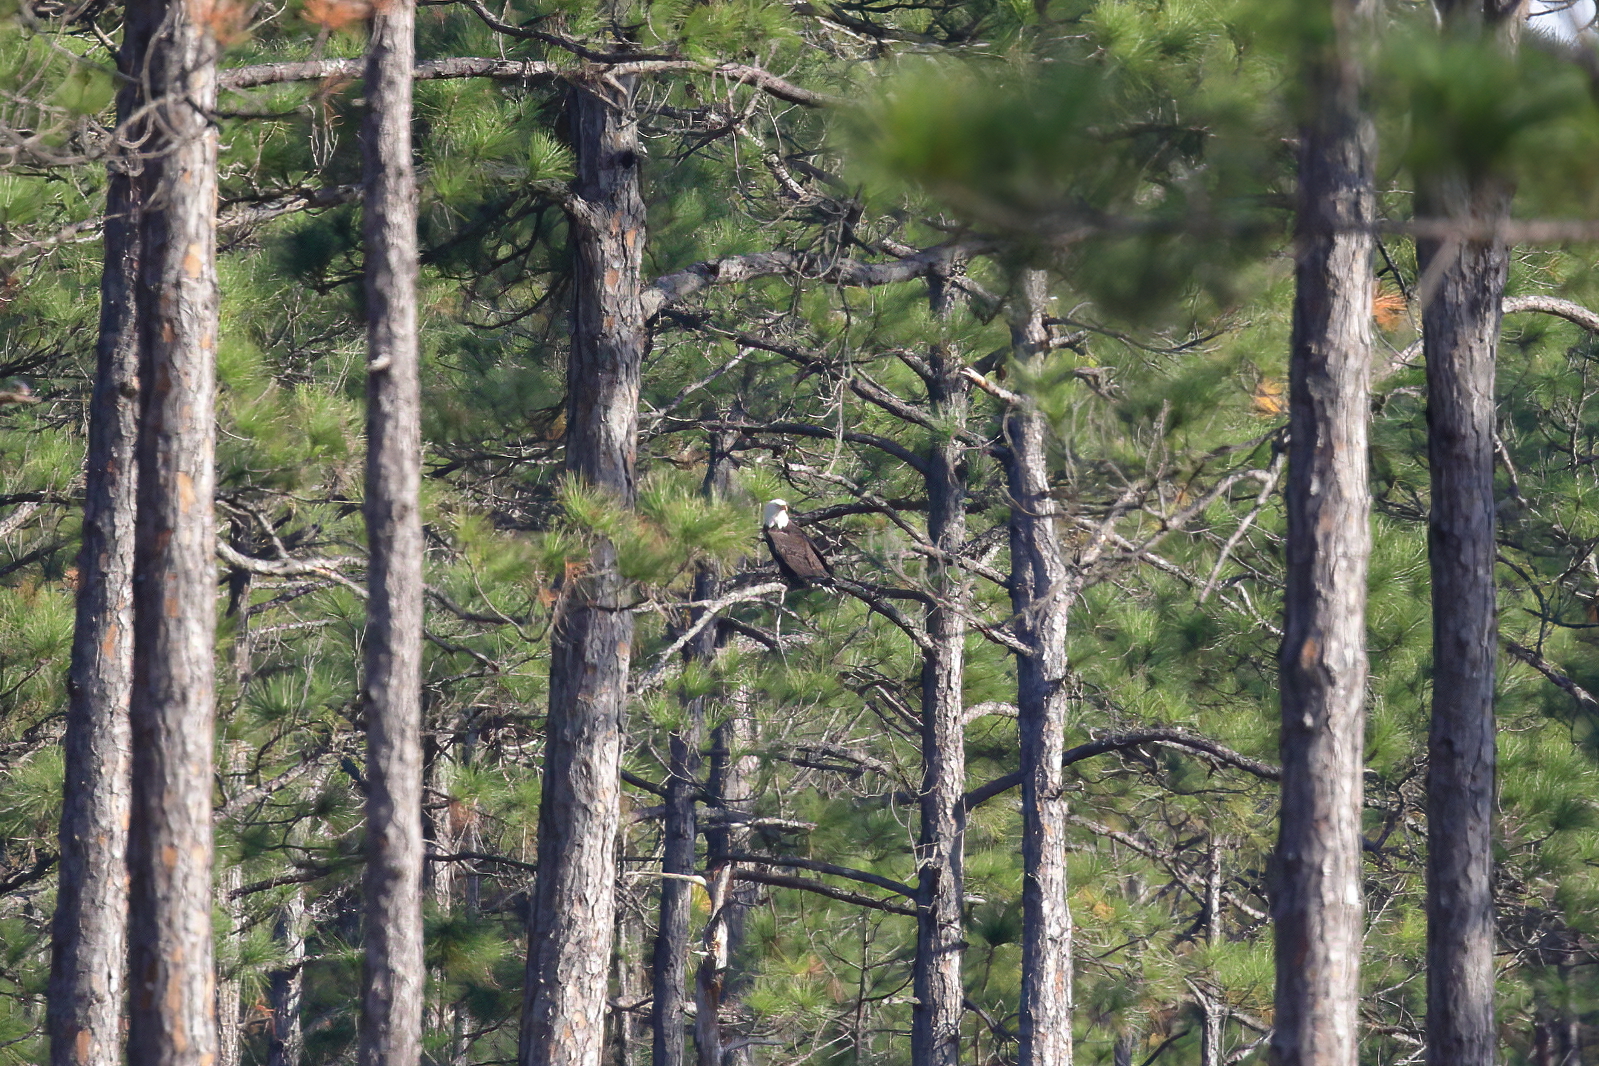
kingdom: Animalia
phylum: Chordata
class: Aves
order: Accipitriformes
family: Accipitridae
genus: Haliaeetus
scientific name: Haliaeetus leucocephalus
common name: Bald eagle
